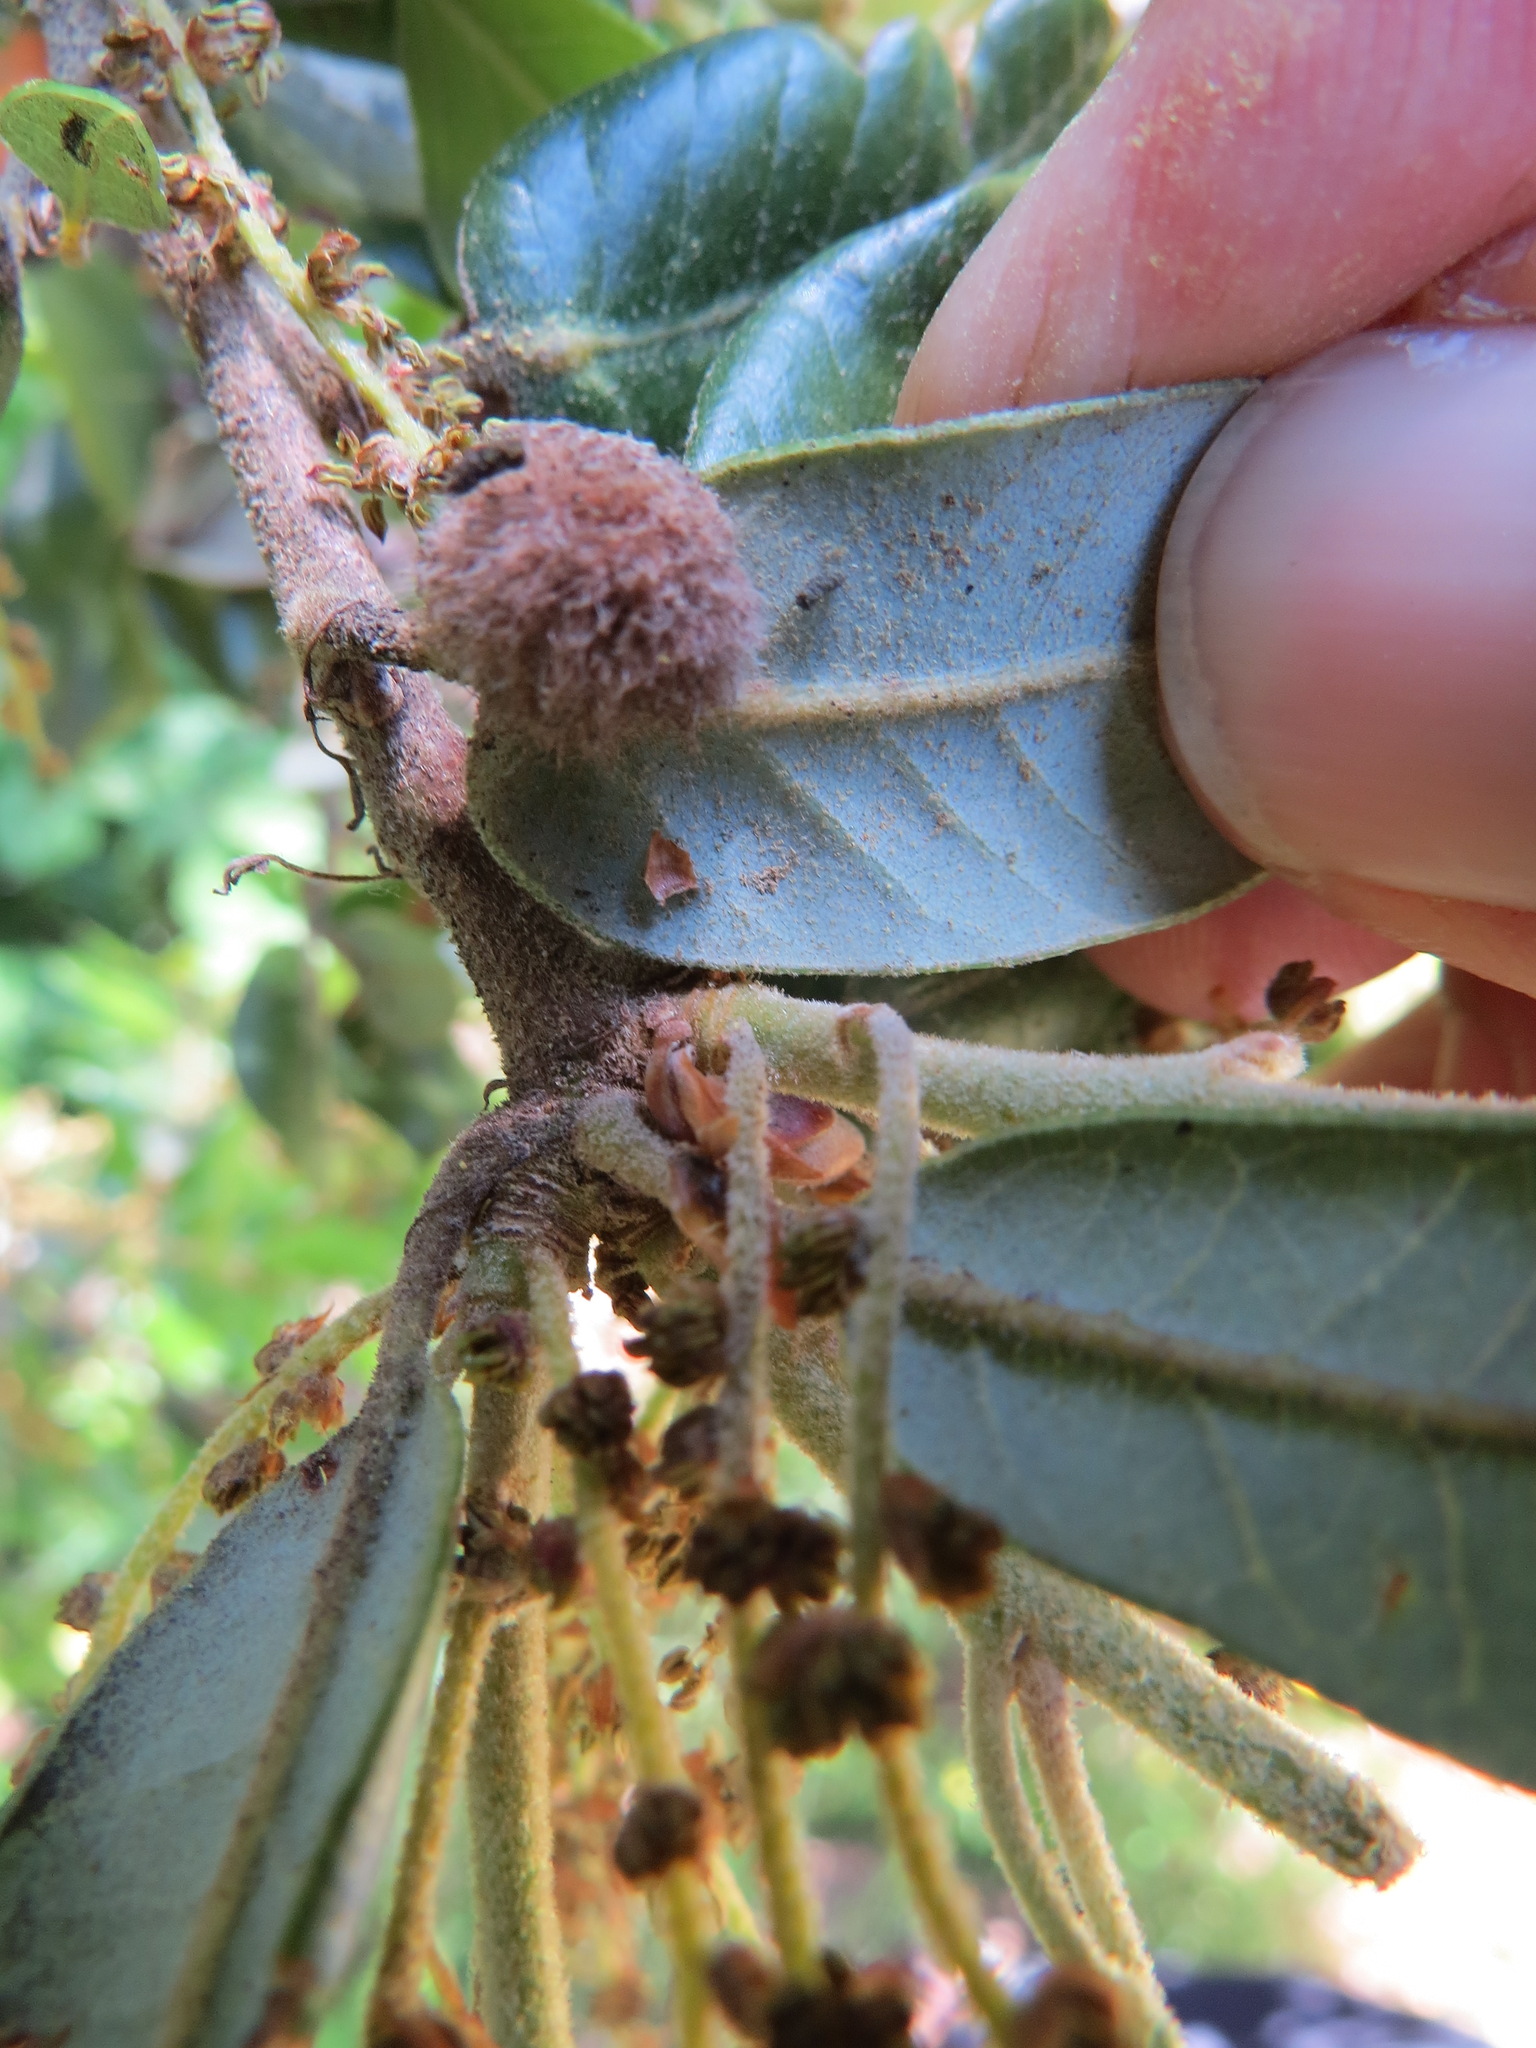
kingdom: Animalia
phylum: Arthropoda
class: Insecta
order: Hymenoptera
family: Cynipidae
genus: Disholandricus
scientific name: Disholandricus
